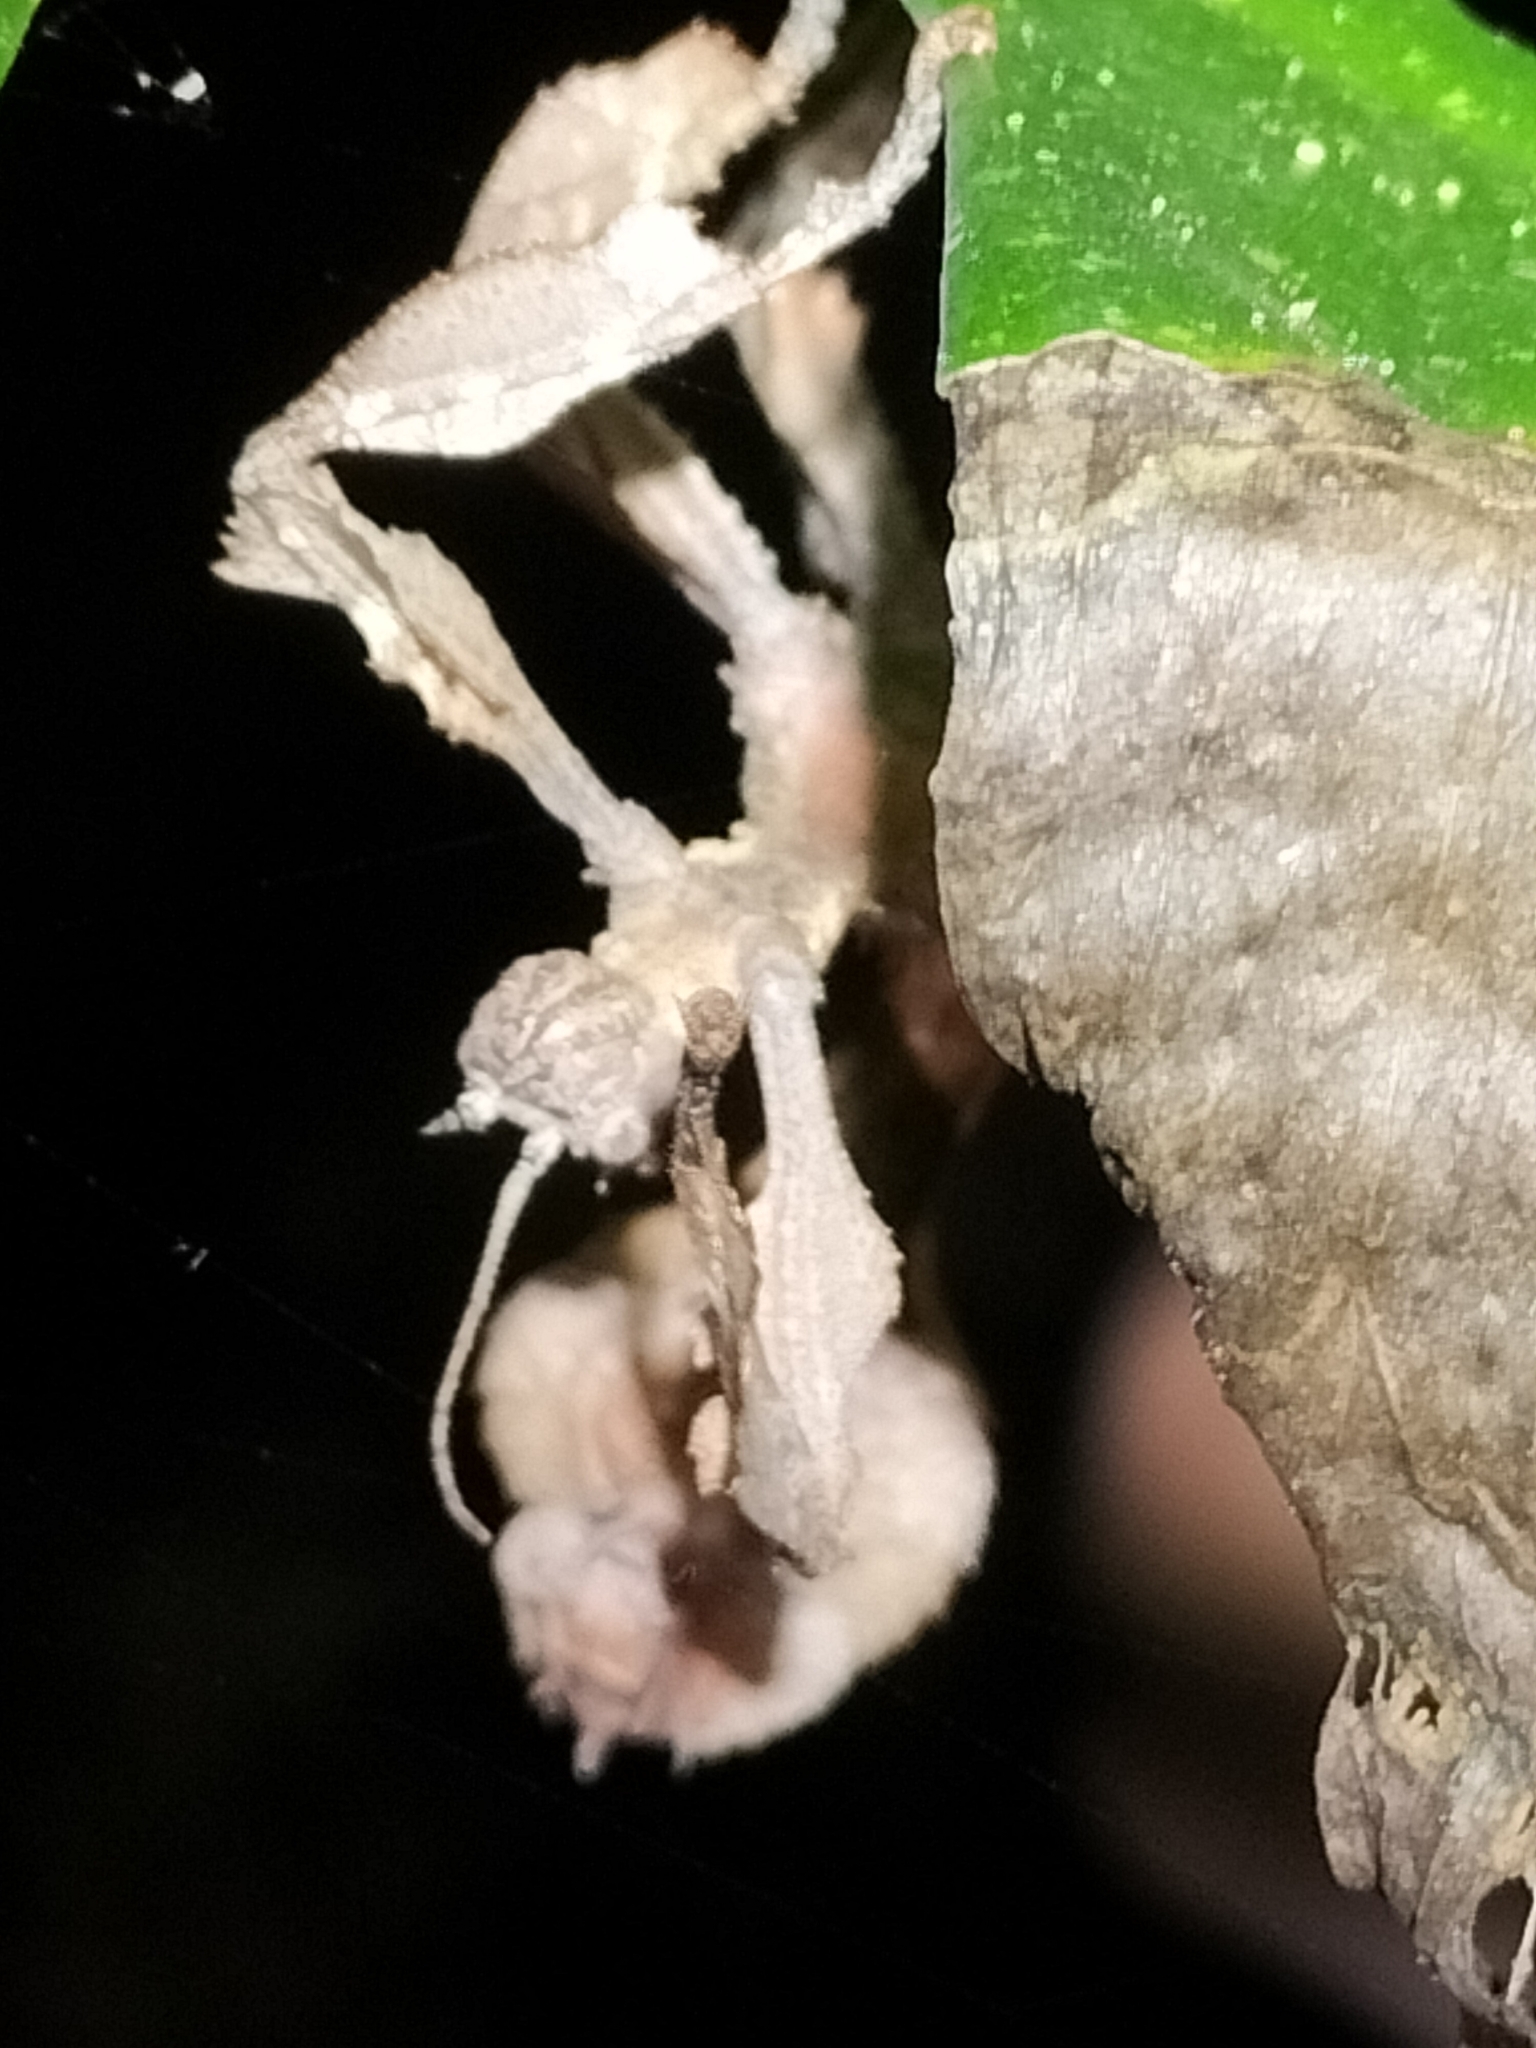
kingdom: Animalia
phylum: Arthropoda
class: Insecta
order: Phasmida
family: Phasmatidae
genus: Extatosoma
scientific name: Extatosoma tiaratum
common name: Macleay's spectre
